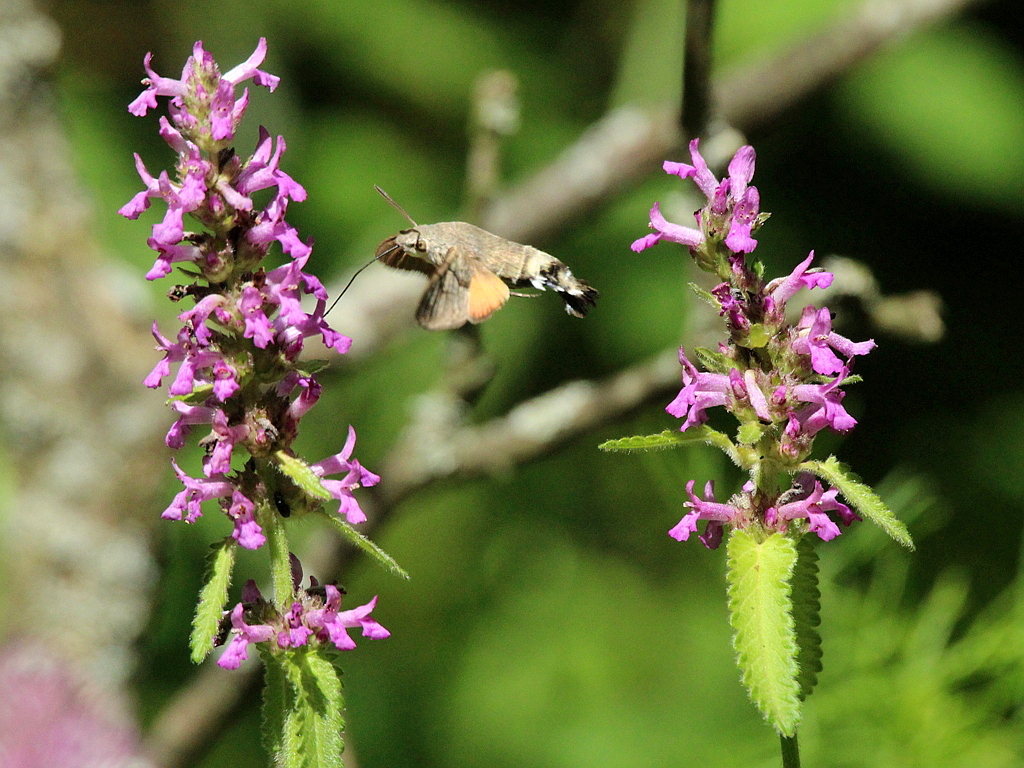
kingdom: Animalia
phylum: Arthropoda
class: Insecta
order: Lepidoptera
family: Sphingidae
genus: Macroglossum
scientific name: Macroglossum stellatarum
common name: Humming-bird hawk-moth
